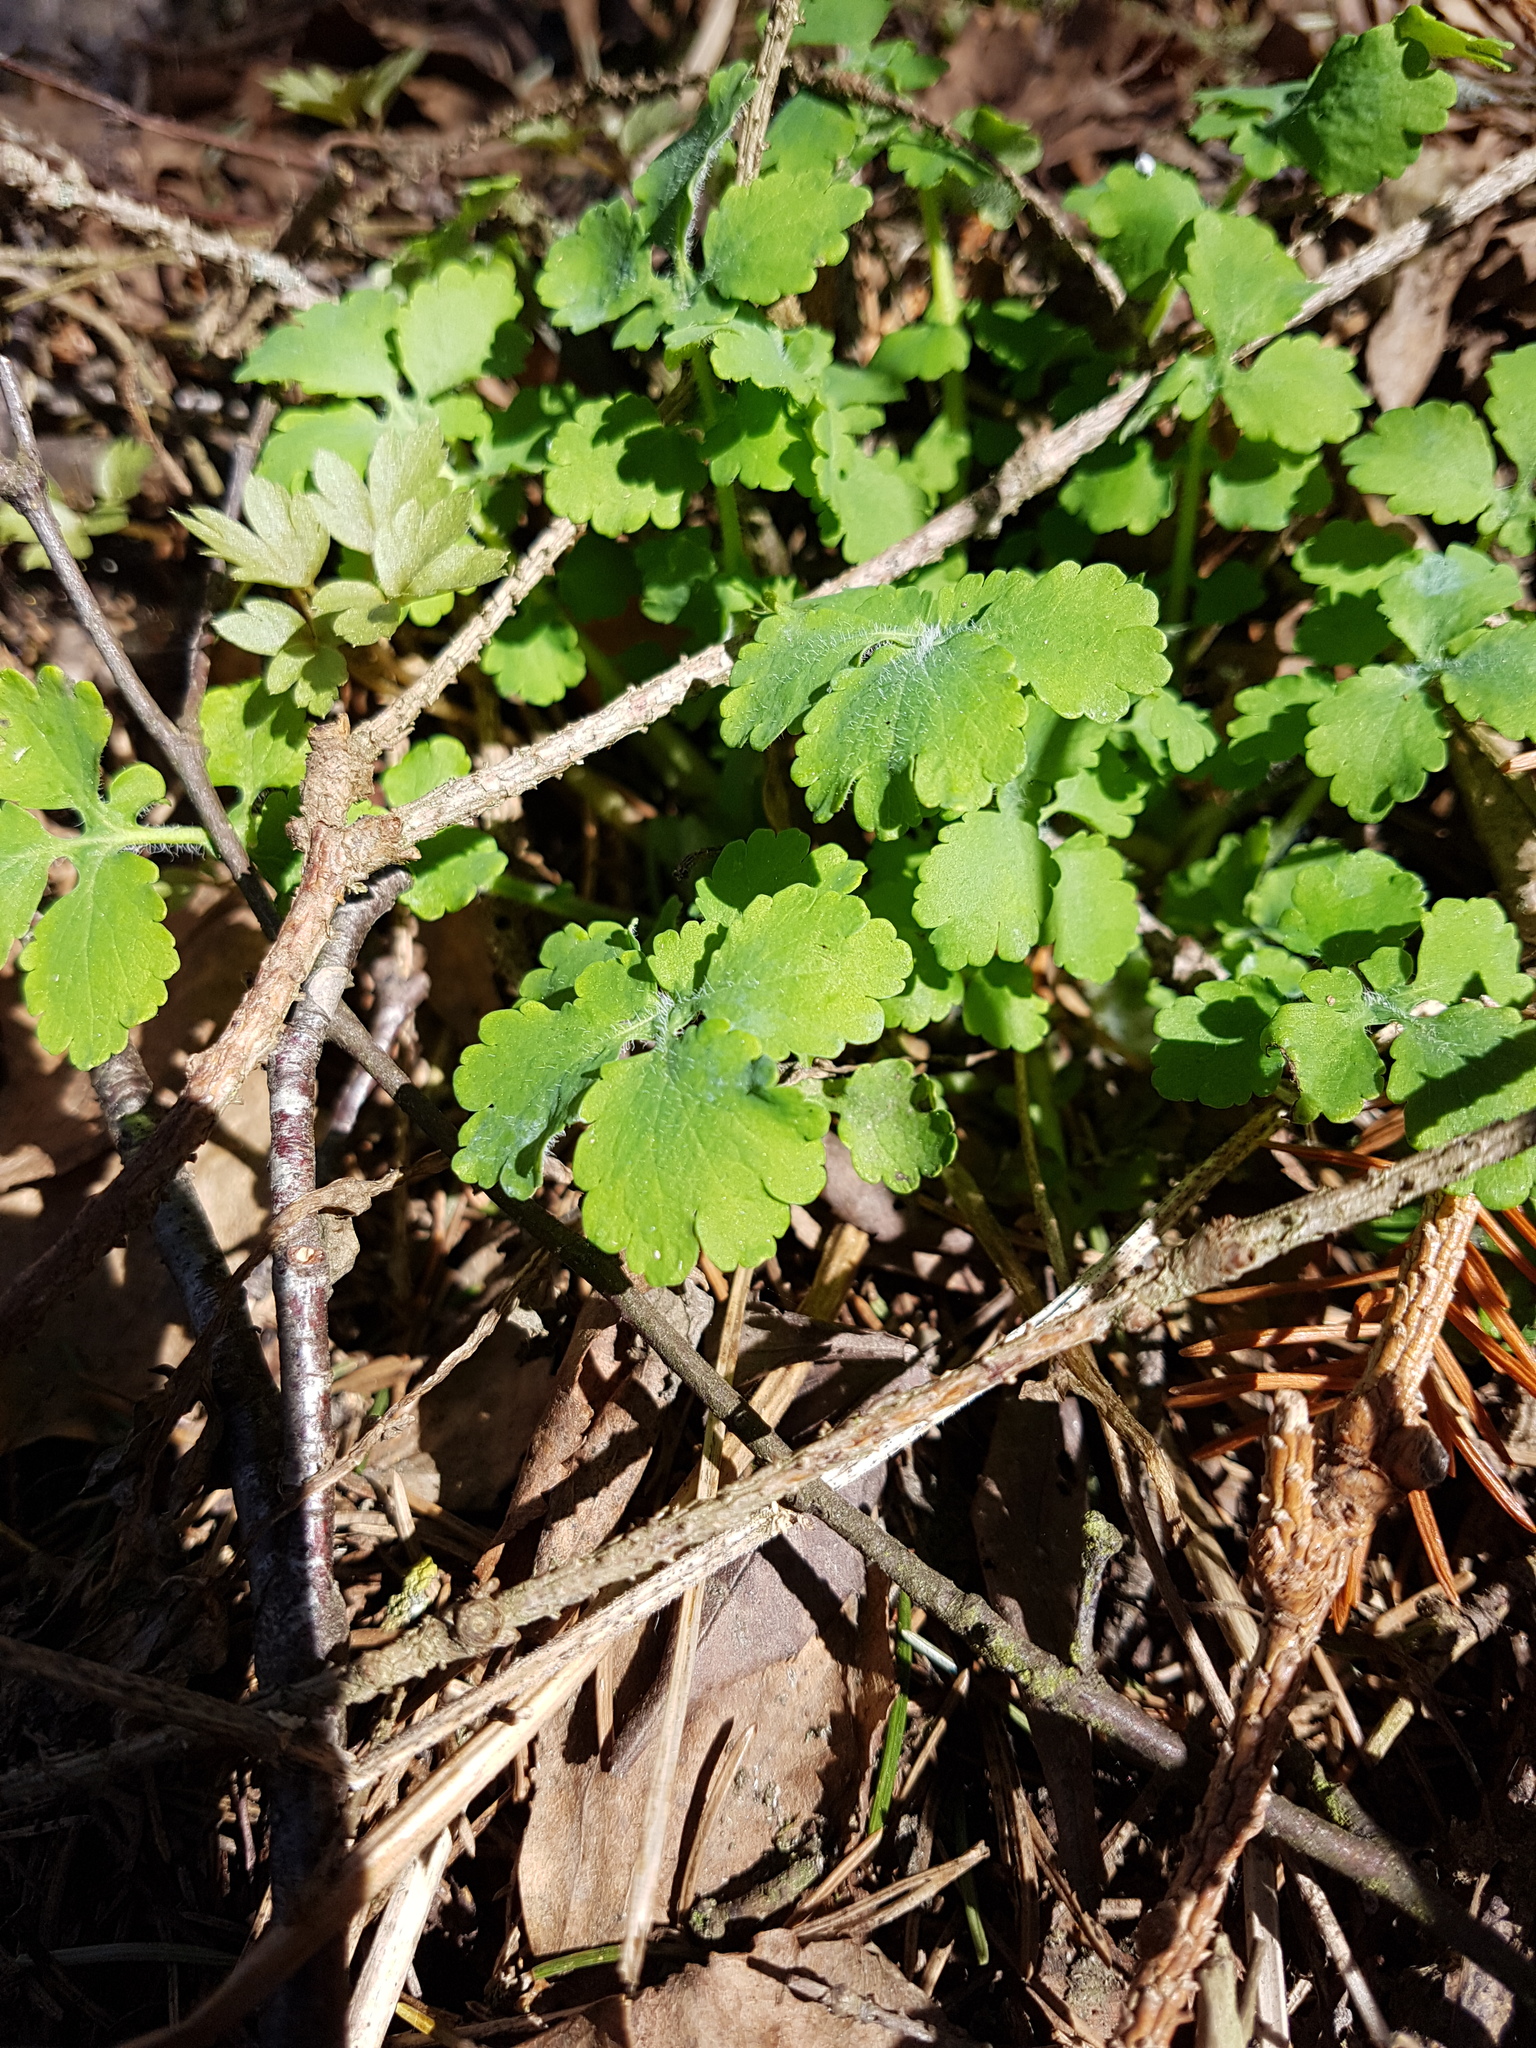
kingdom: Plantae
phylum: Tracheophyta
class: Magnoliopsida
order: Ranunculales
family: Papaveraceae
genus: Chelidonium
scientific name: Chelidonium majus
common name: Greater celandine
